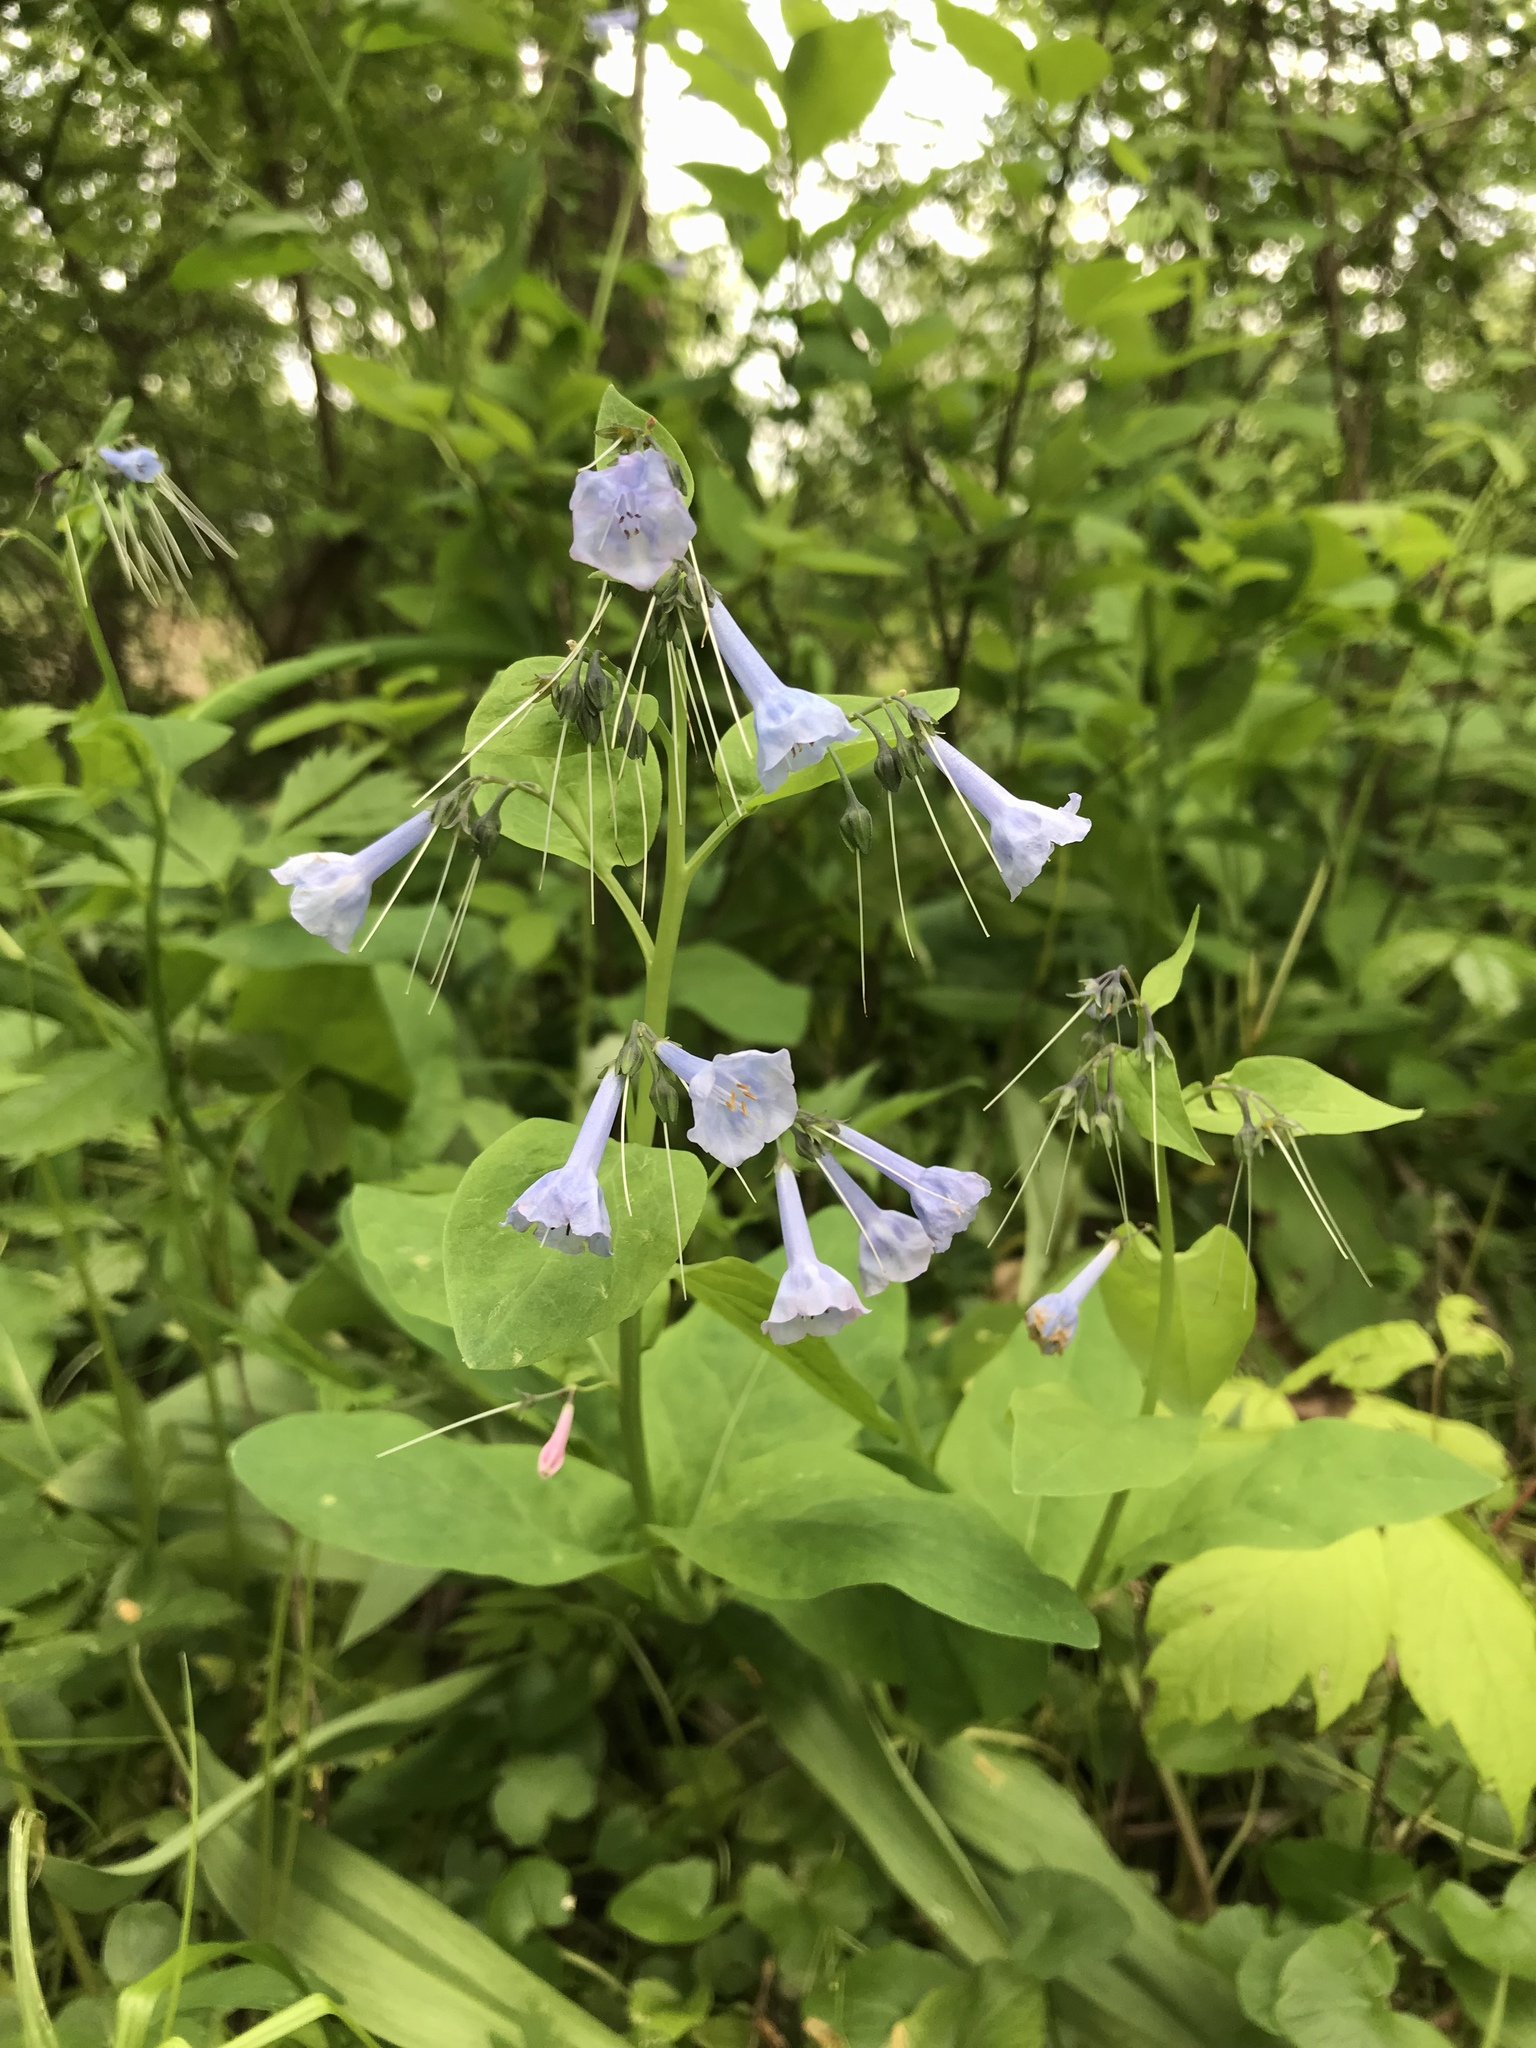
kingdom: Plantae
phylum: Tracheophyta
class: Magnoliopsida
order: Boraginales
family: Boraginaceae
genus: Mertensia
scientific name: Mertensia virginica
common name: Virginia bluebells
